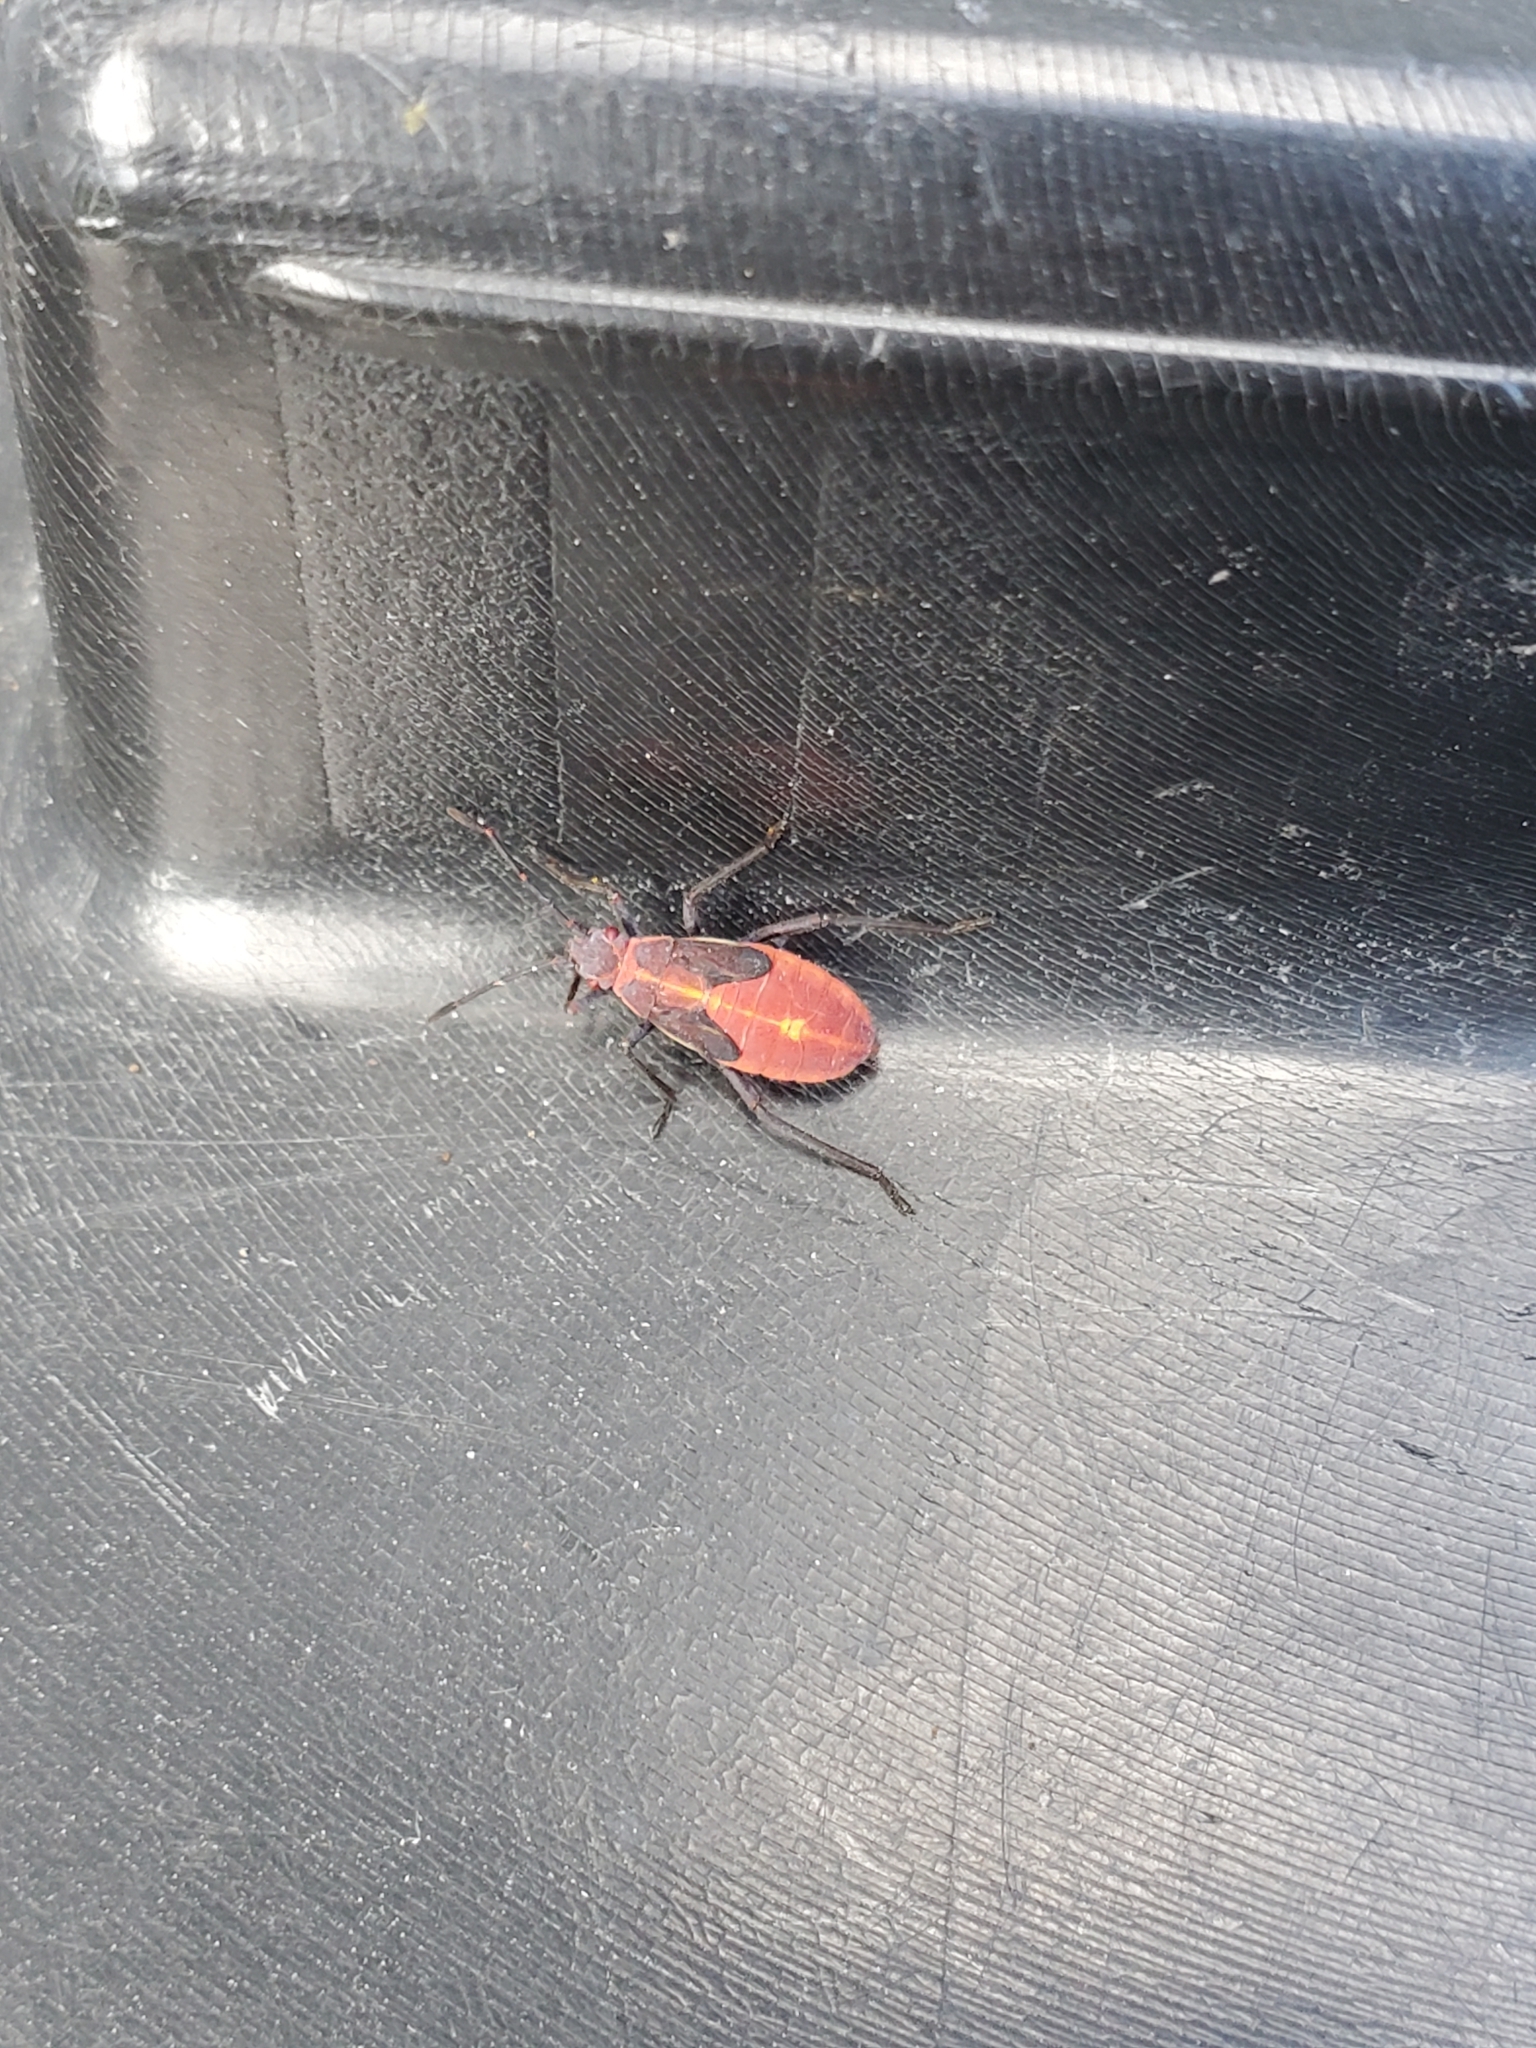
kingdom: Animalia
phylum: Arthropoda
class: Insecta
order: Hemiptera
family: Rhopalidae
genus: Boisea
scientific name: Boisea trivittata
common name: Boxelder bug
